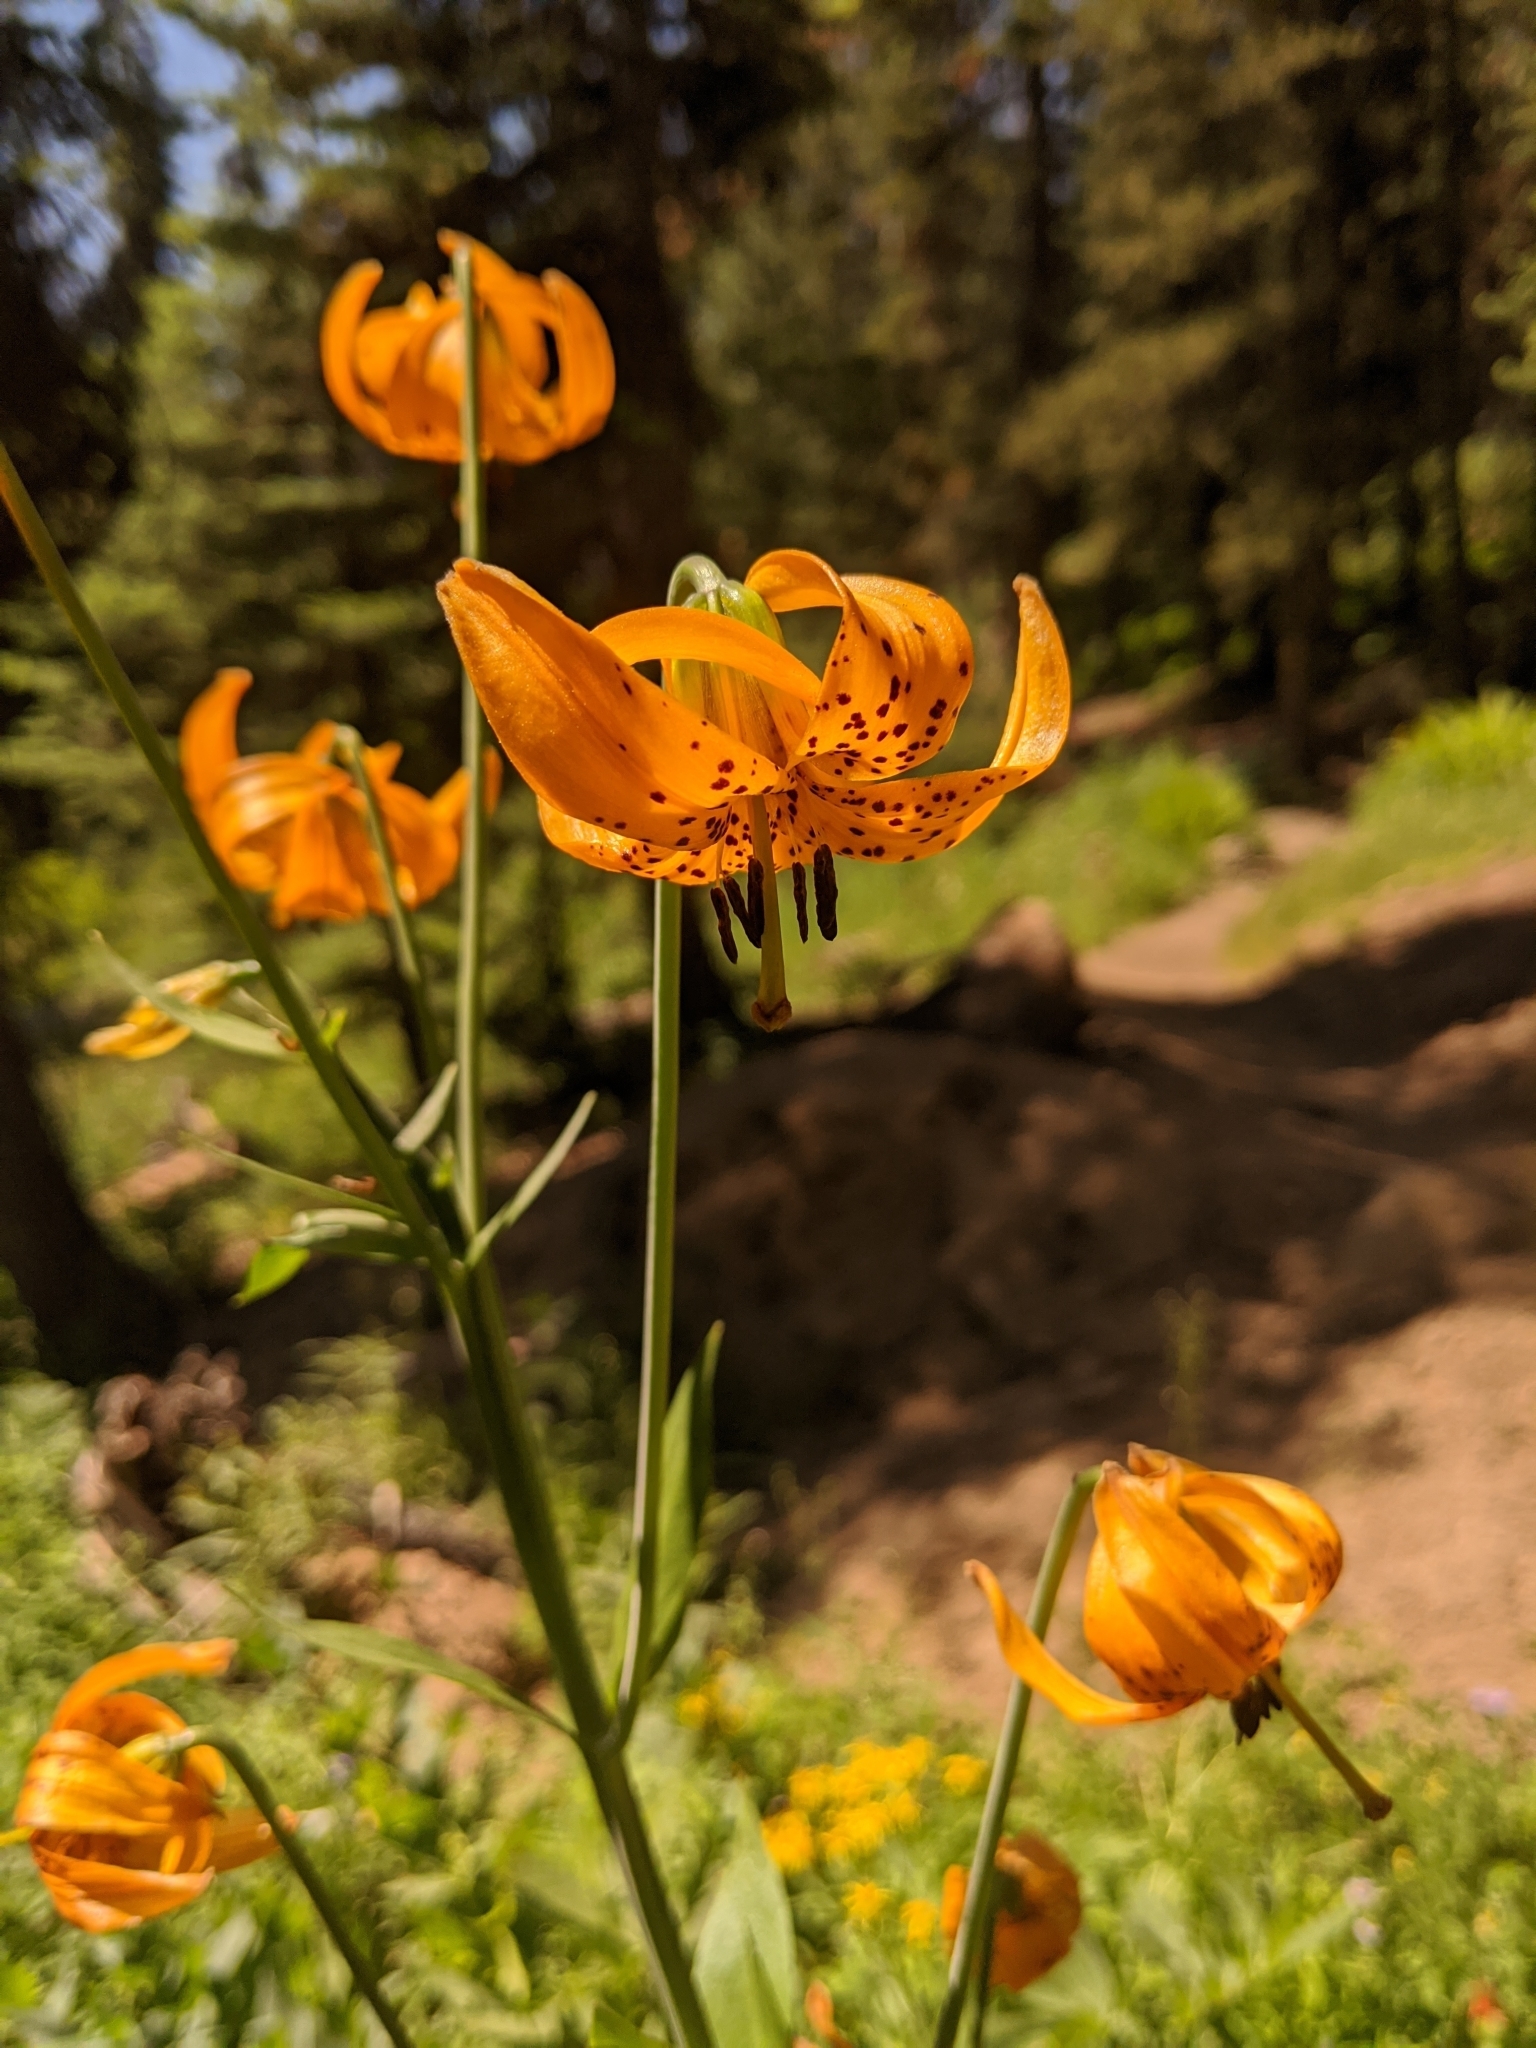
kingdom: Plantae
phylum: Tracheophyta
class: Liliopsida
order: Liliales
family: Liliaceae
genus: Lilium
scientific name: Lilium kelleyanum
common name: Kelley's lily
